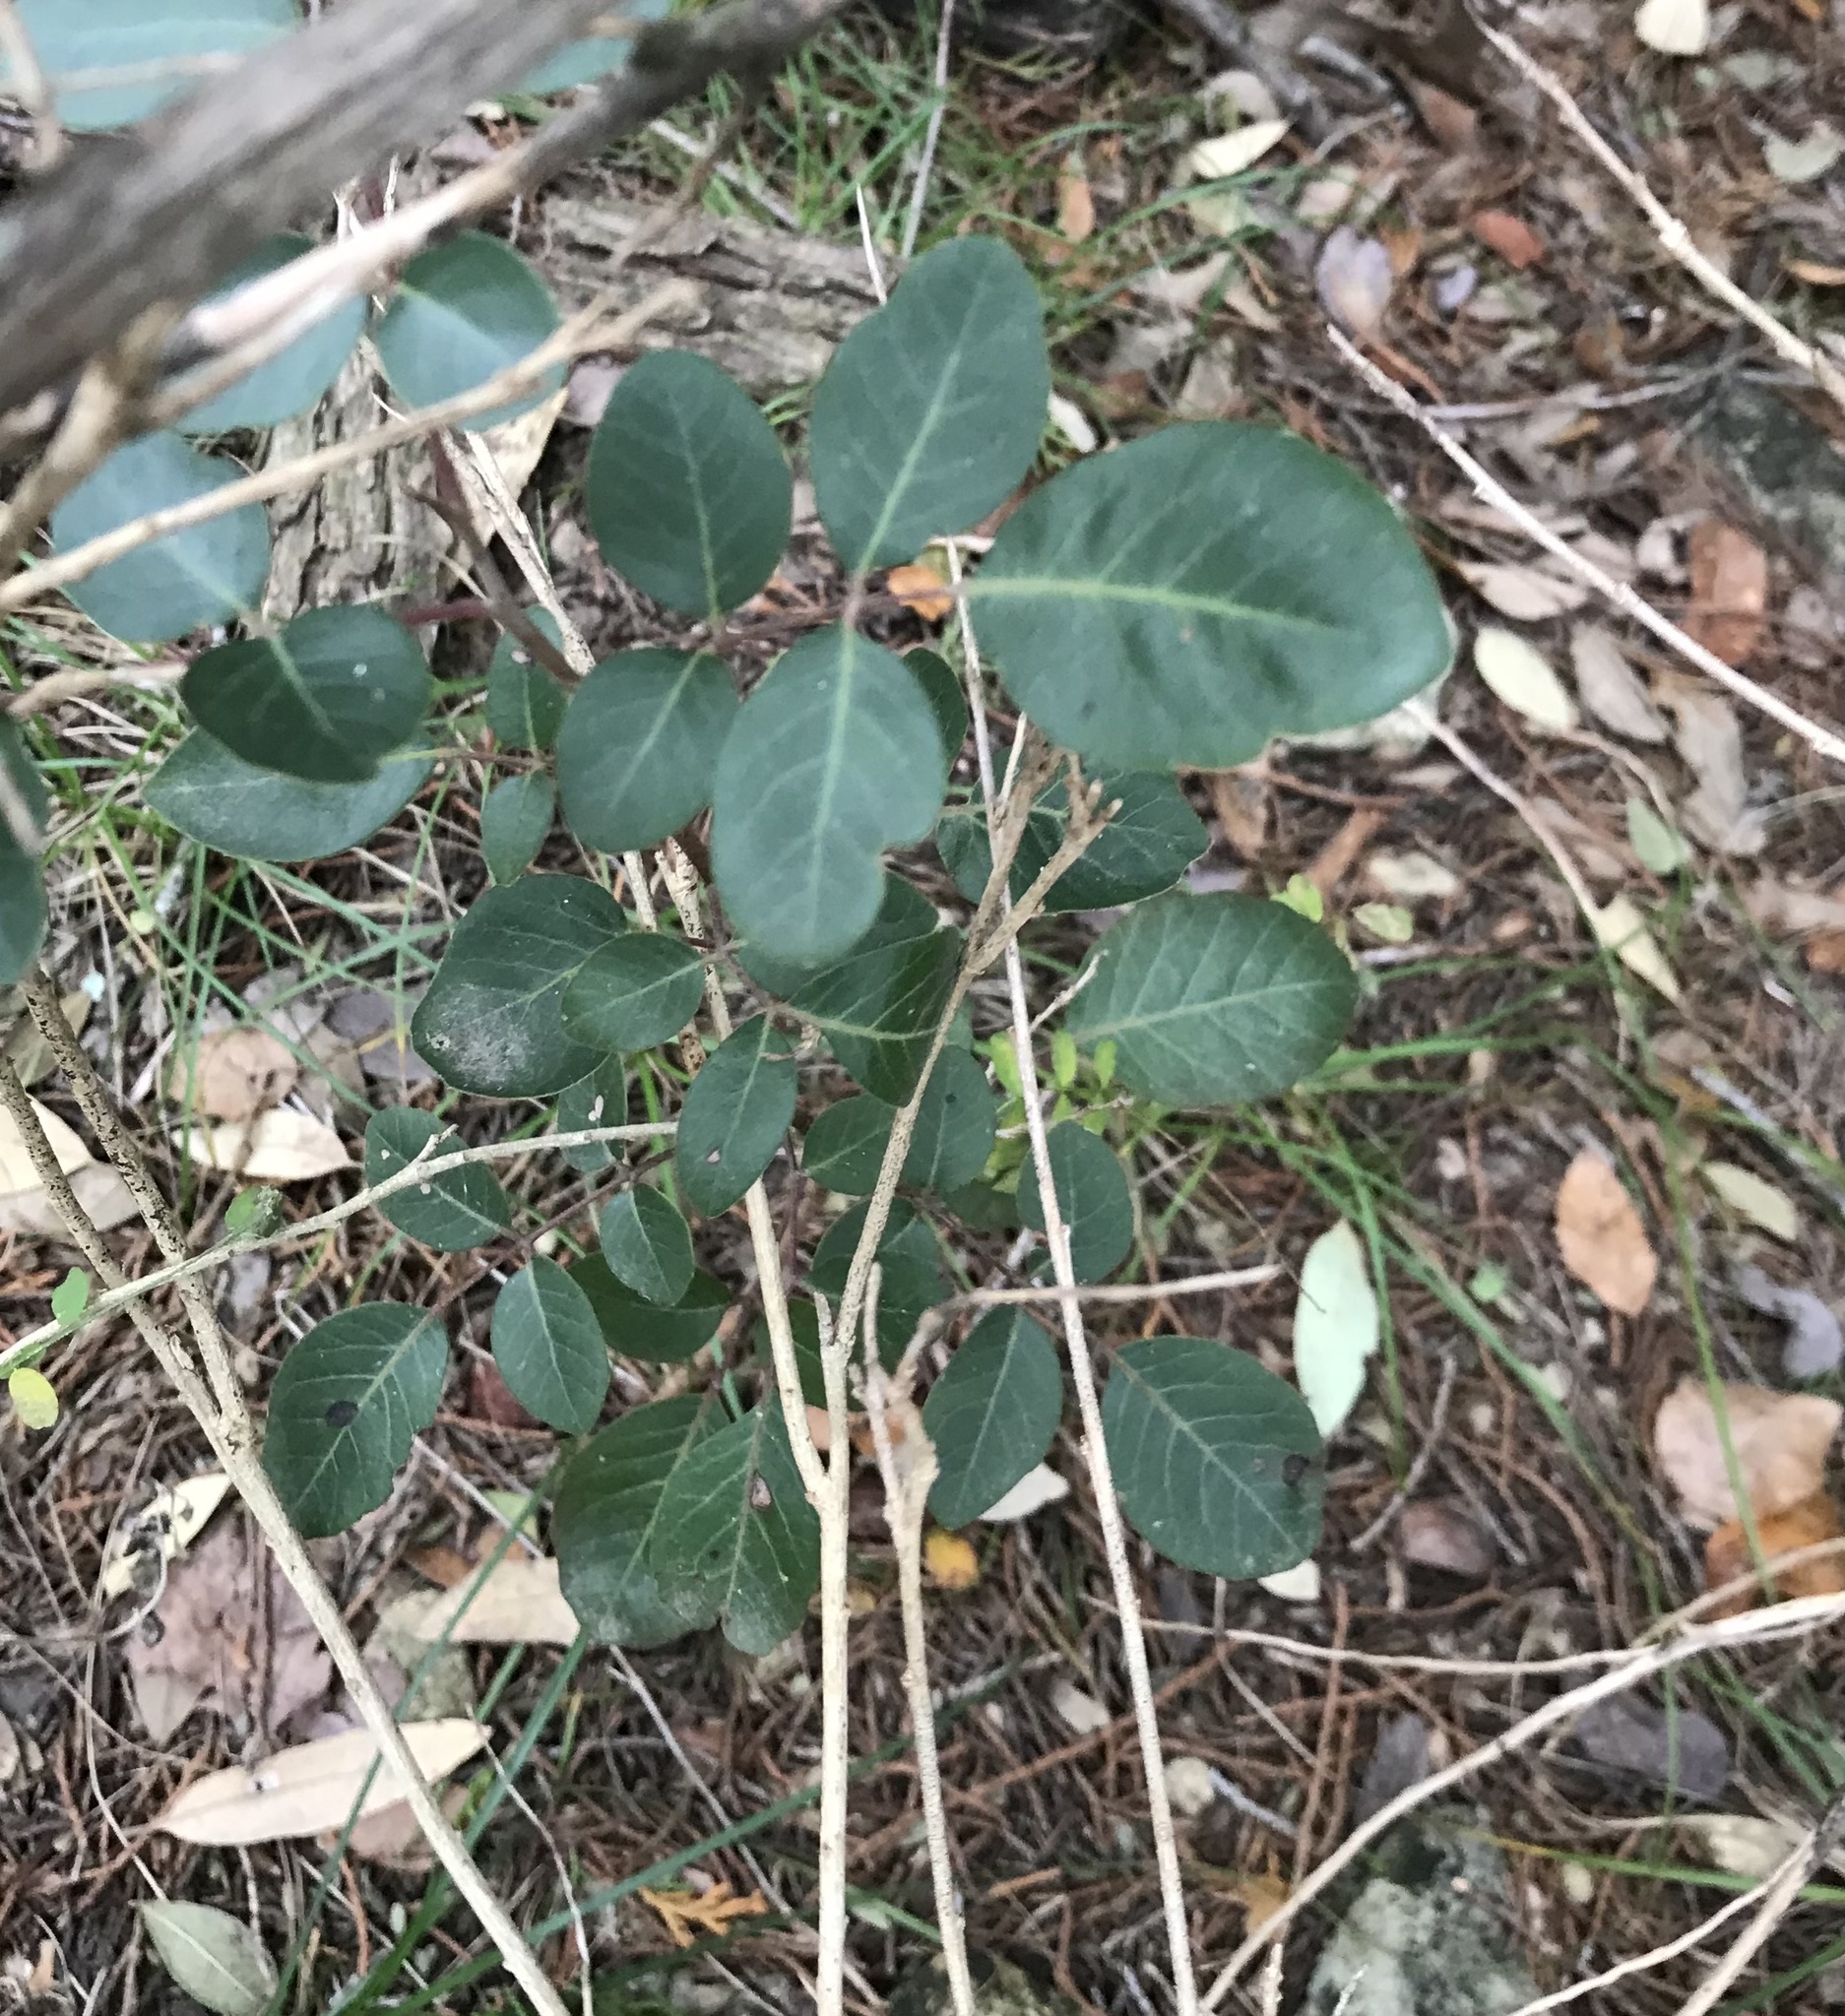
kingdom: Plantae
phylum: Tracheophyta
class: Magnoliopsida
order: Sapindales
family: Anacardiaceae
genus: Rhus
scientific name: Rhus virens
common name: Evergreen sumac
